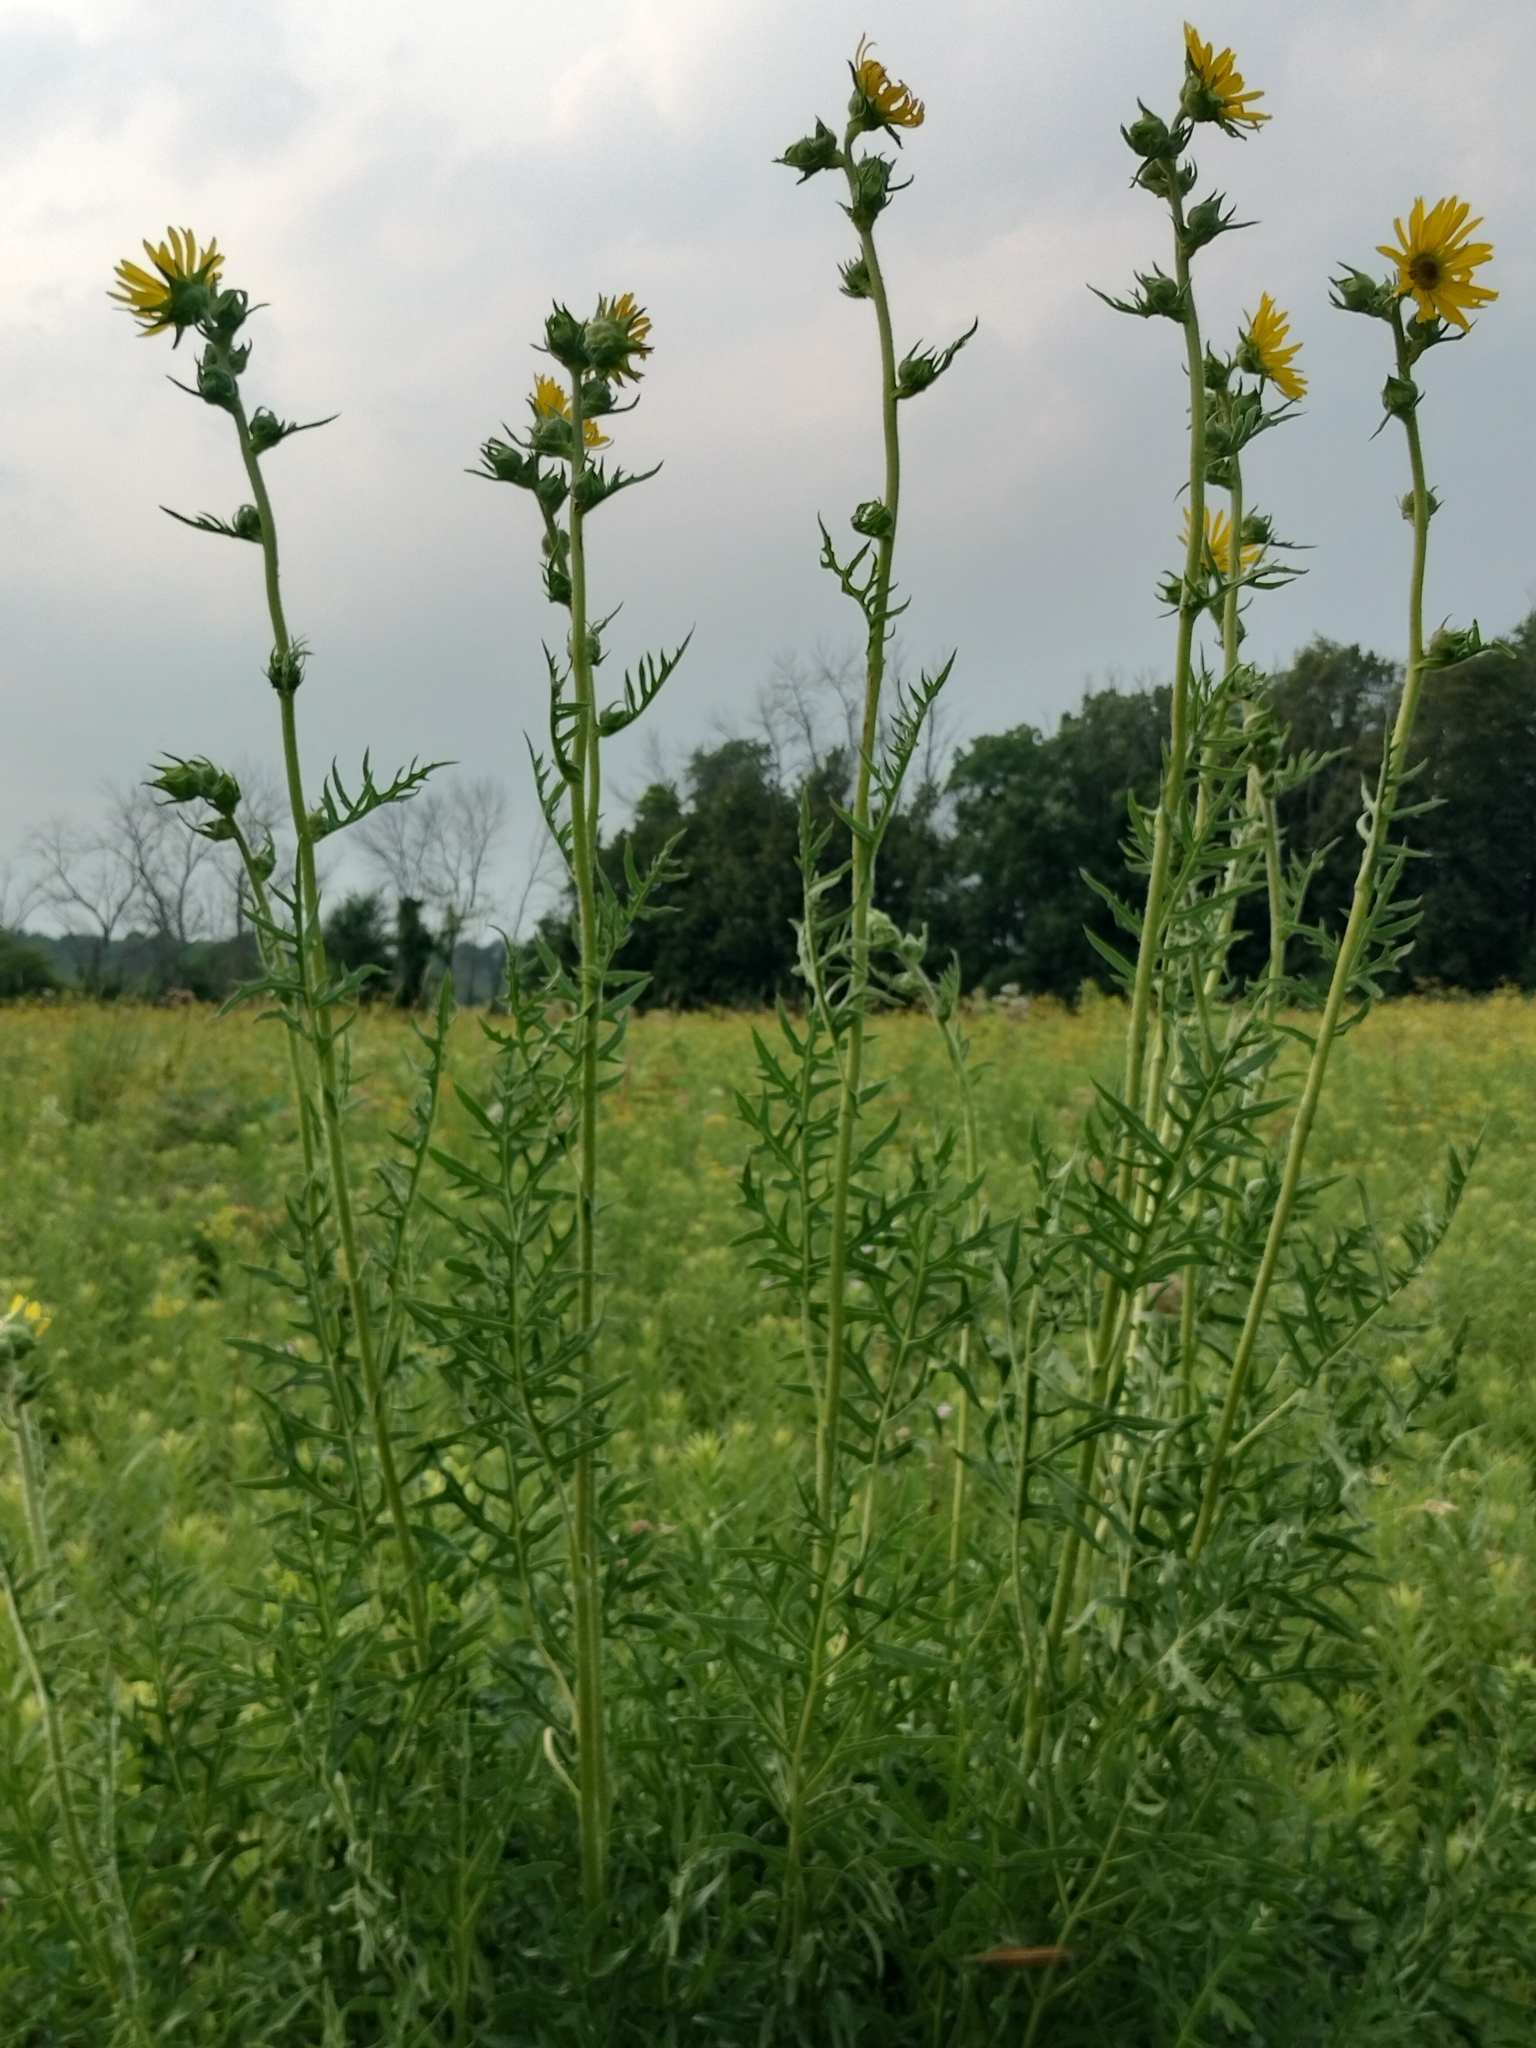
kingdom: Plantae
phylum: Tracheophyta
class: Magnoliopsida
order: Asterales
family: Asteraceae
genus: Silphium
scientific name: Silphium laciniatum
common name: Polarplant
